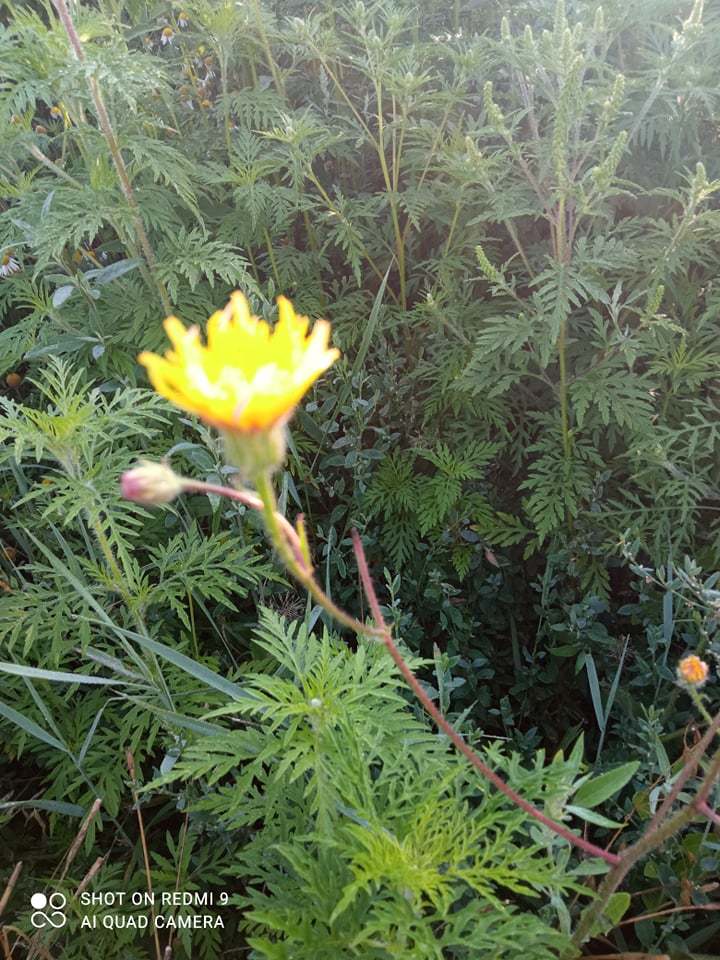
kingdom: Plantae
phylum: Tracheophyta
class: Magnoliopsida
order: Asterales
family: Asteraceae
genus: Crepis
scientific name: Crepis foetida
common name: Stinking hawk's-beard
